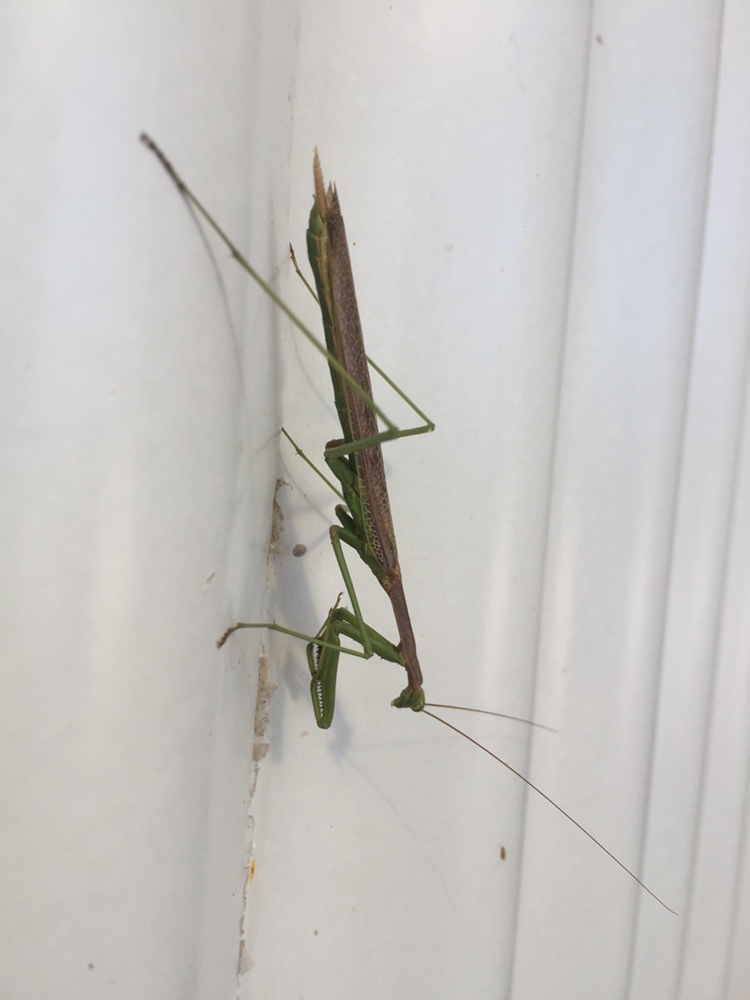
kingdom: Animalia
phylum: Arthropoda
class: Insecta
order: Mantodea
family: Coptopterygidae
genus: Coptopteryx
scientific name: Coptopteryx gayi
